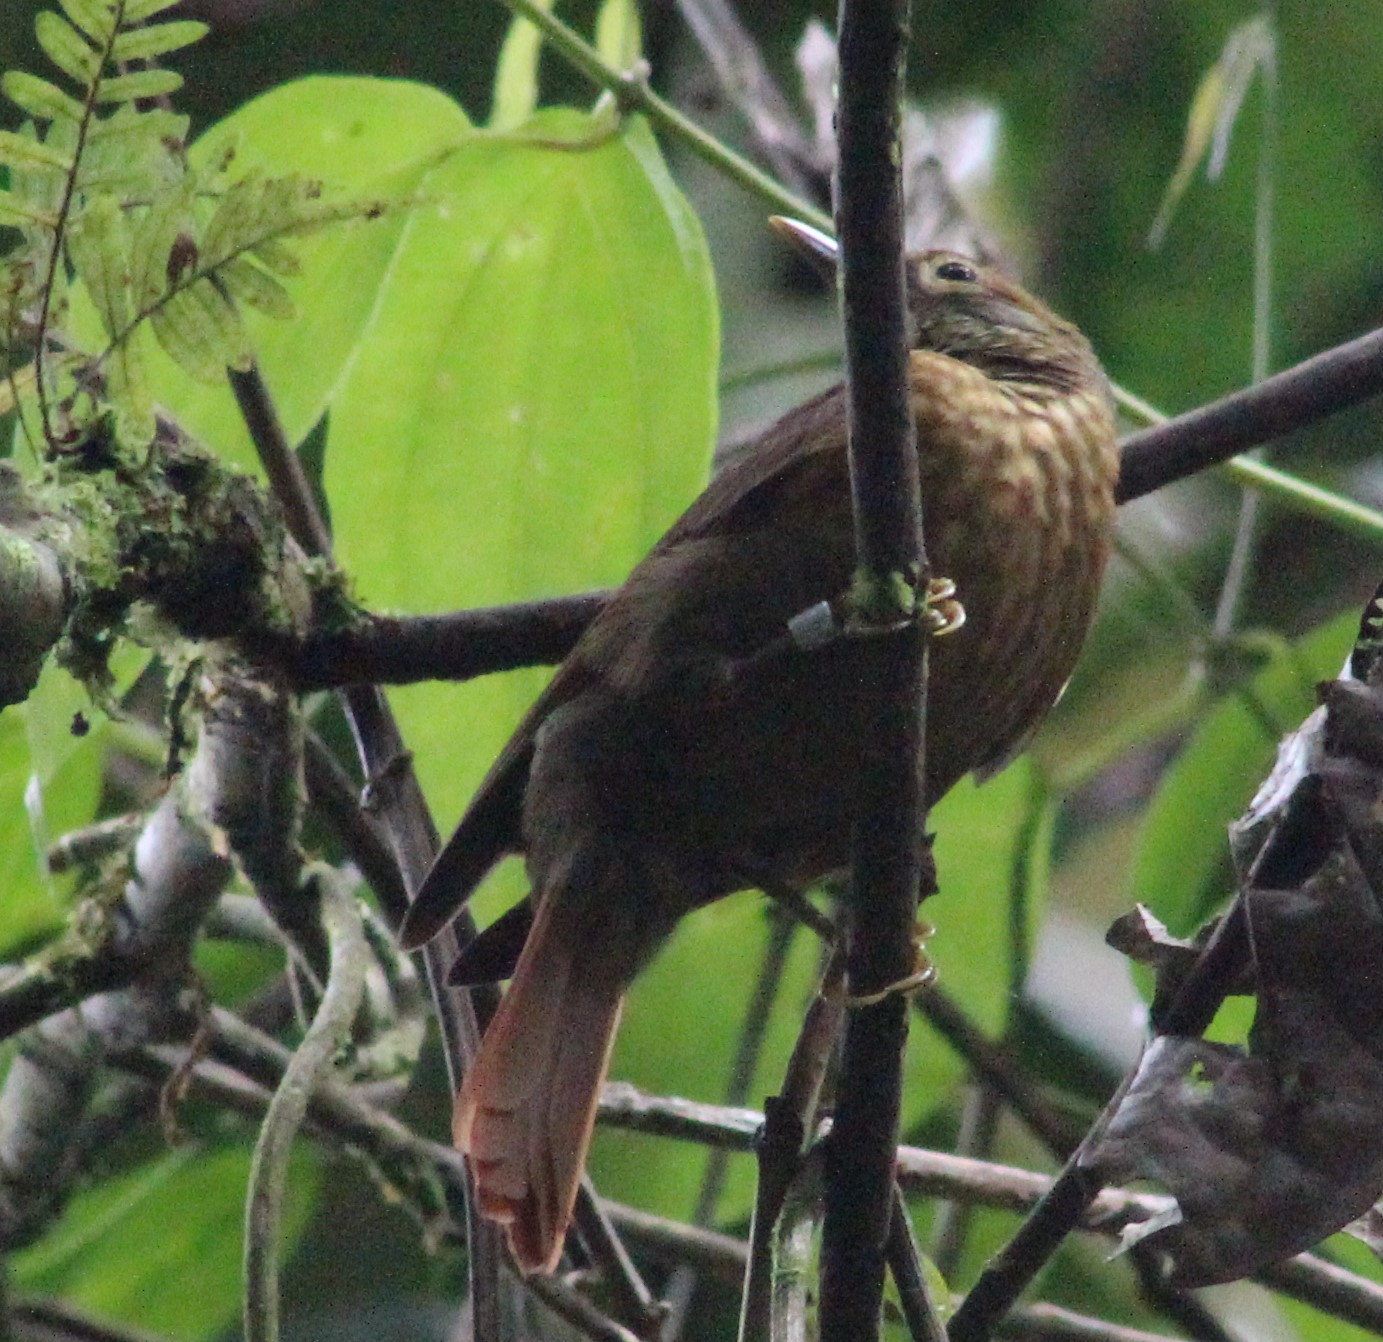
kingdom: Animalia
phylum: Chordata
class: Aves
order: Passeriformes
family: Furnariidae
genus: Anabacerthia
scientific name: Anabacerthia variegaticeps
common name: Scaly-throated foliage-gleaner
